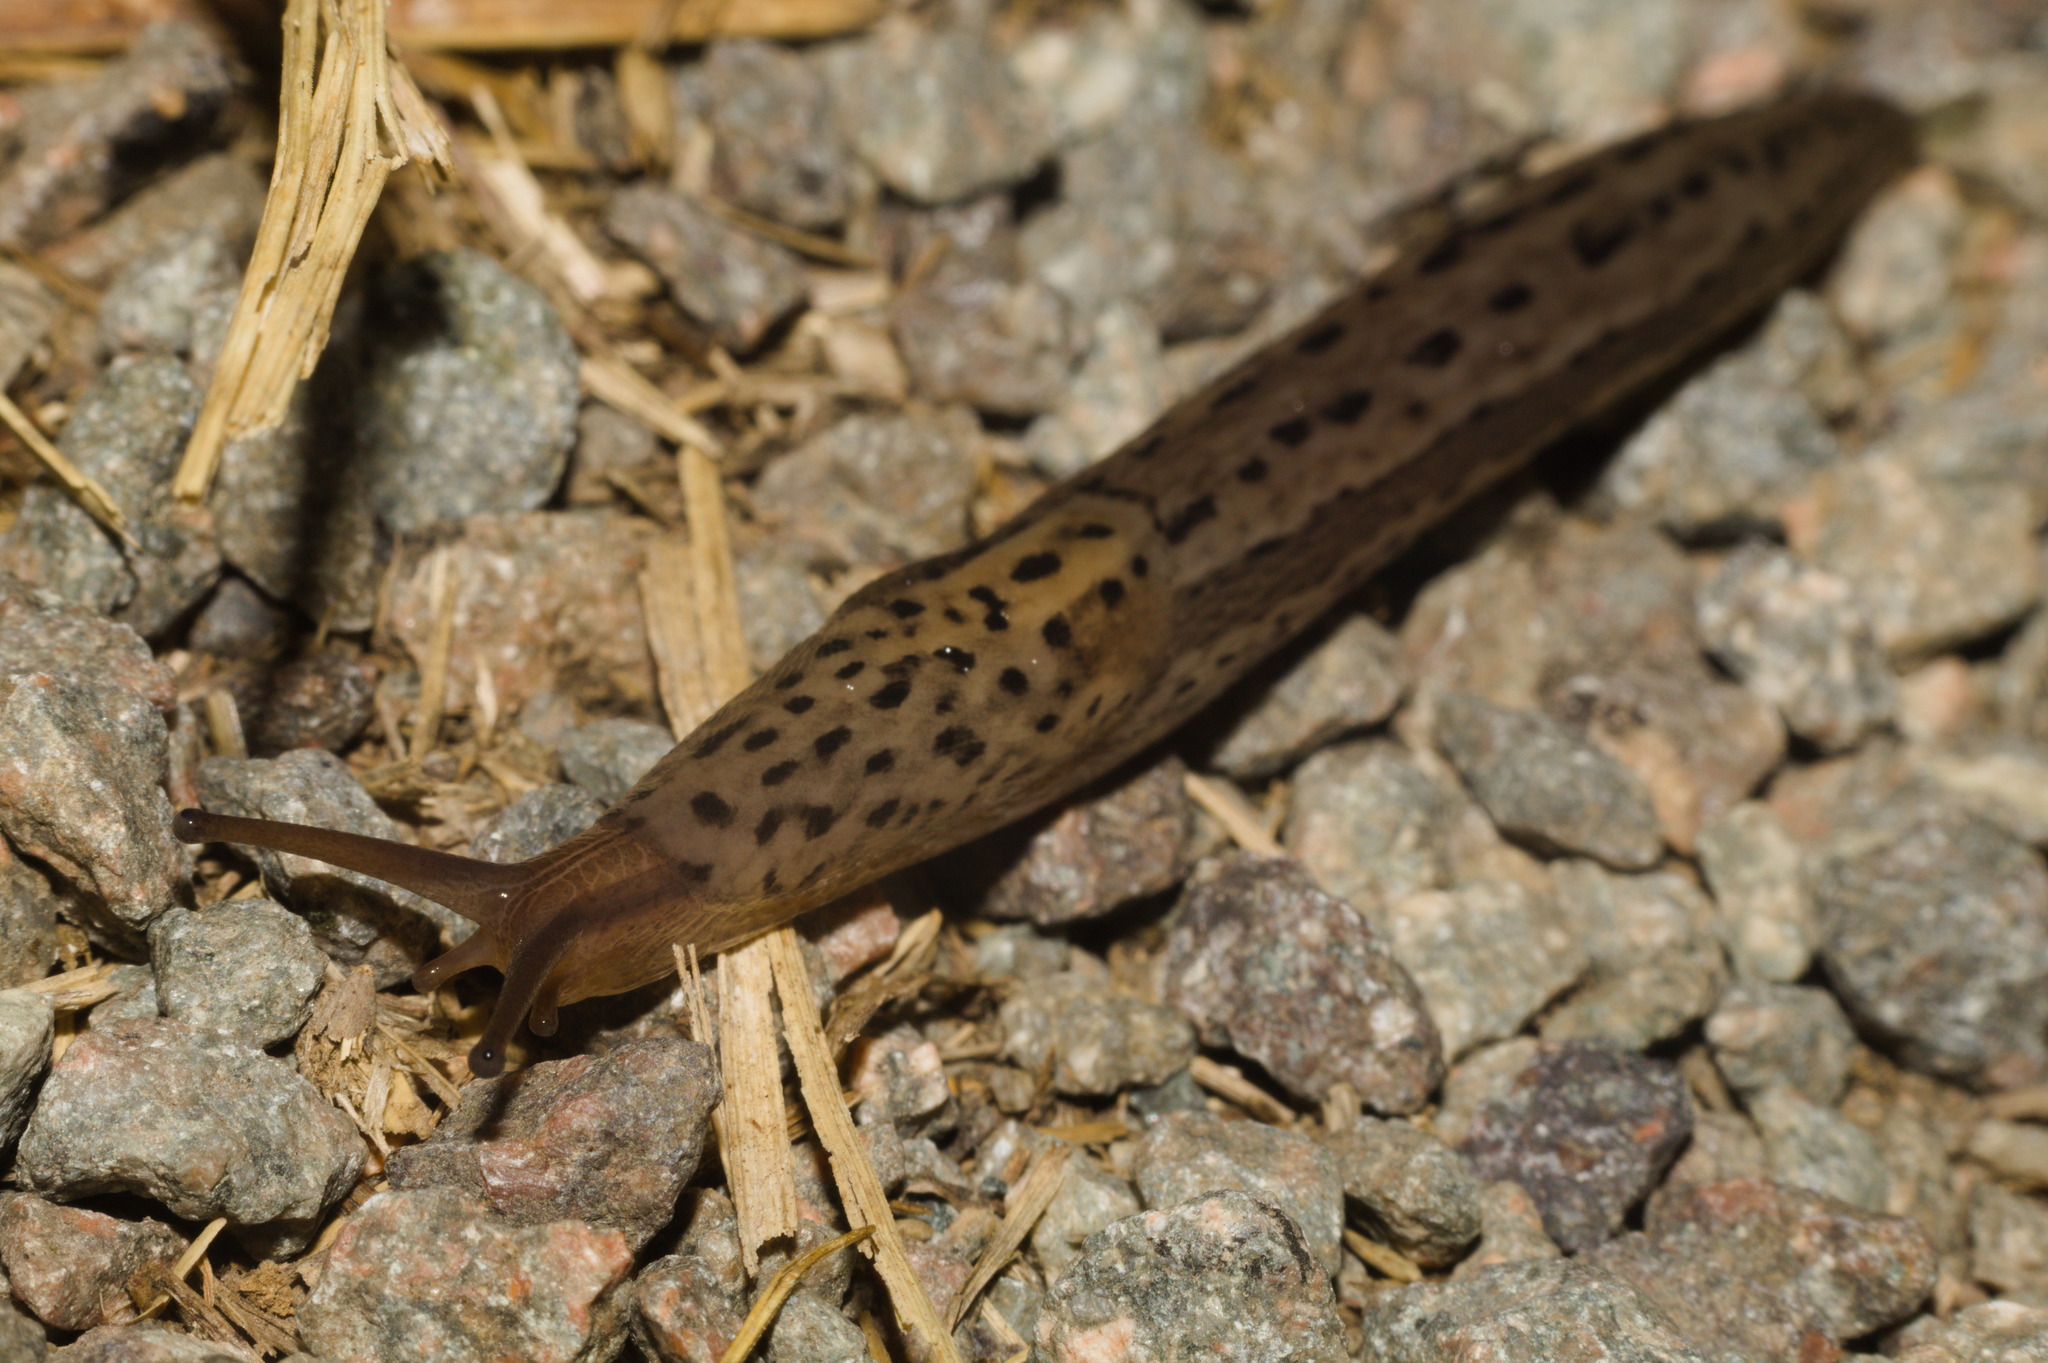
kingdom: Animalia
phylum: Mollusca
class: Gastropoda
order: Stylommatophora
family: Limacidae
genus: Limax
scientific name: Limax maximus
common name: Great grey slug
